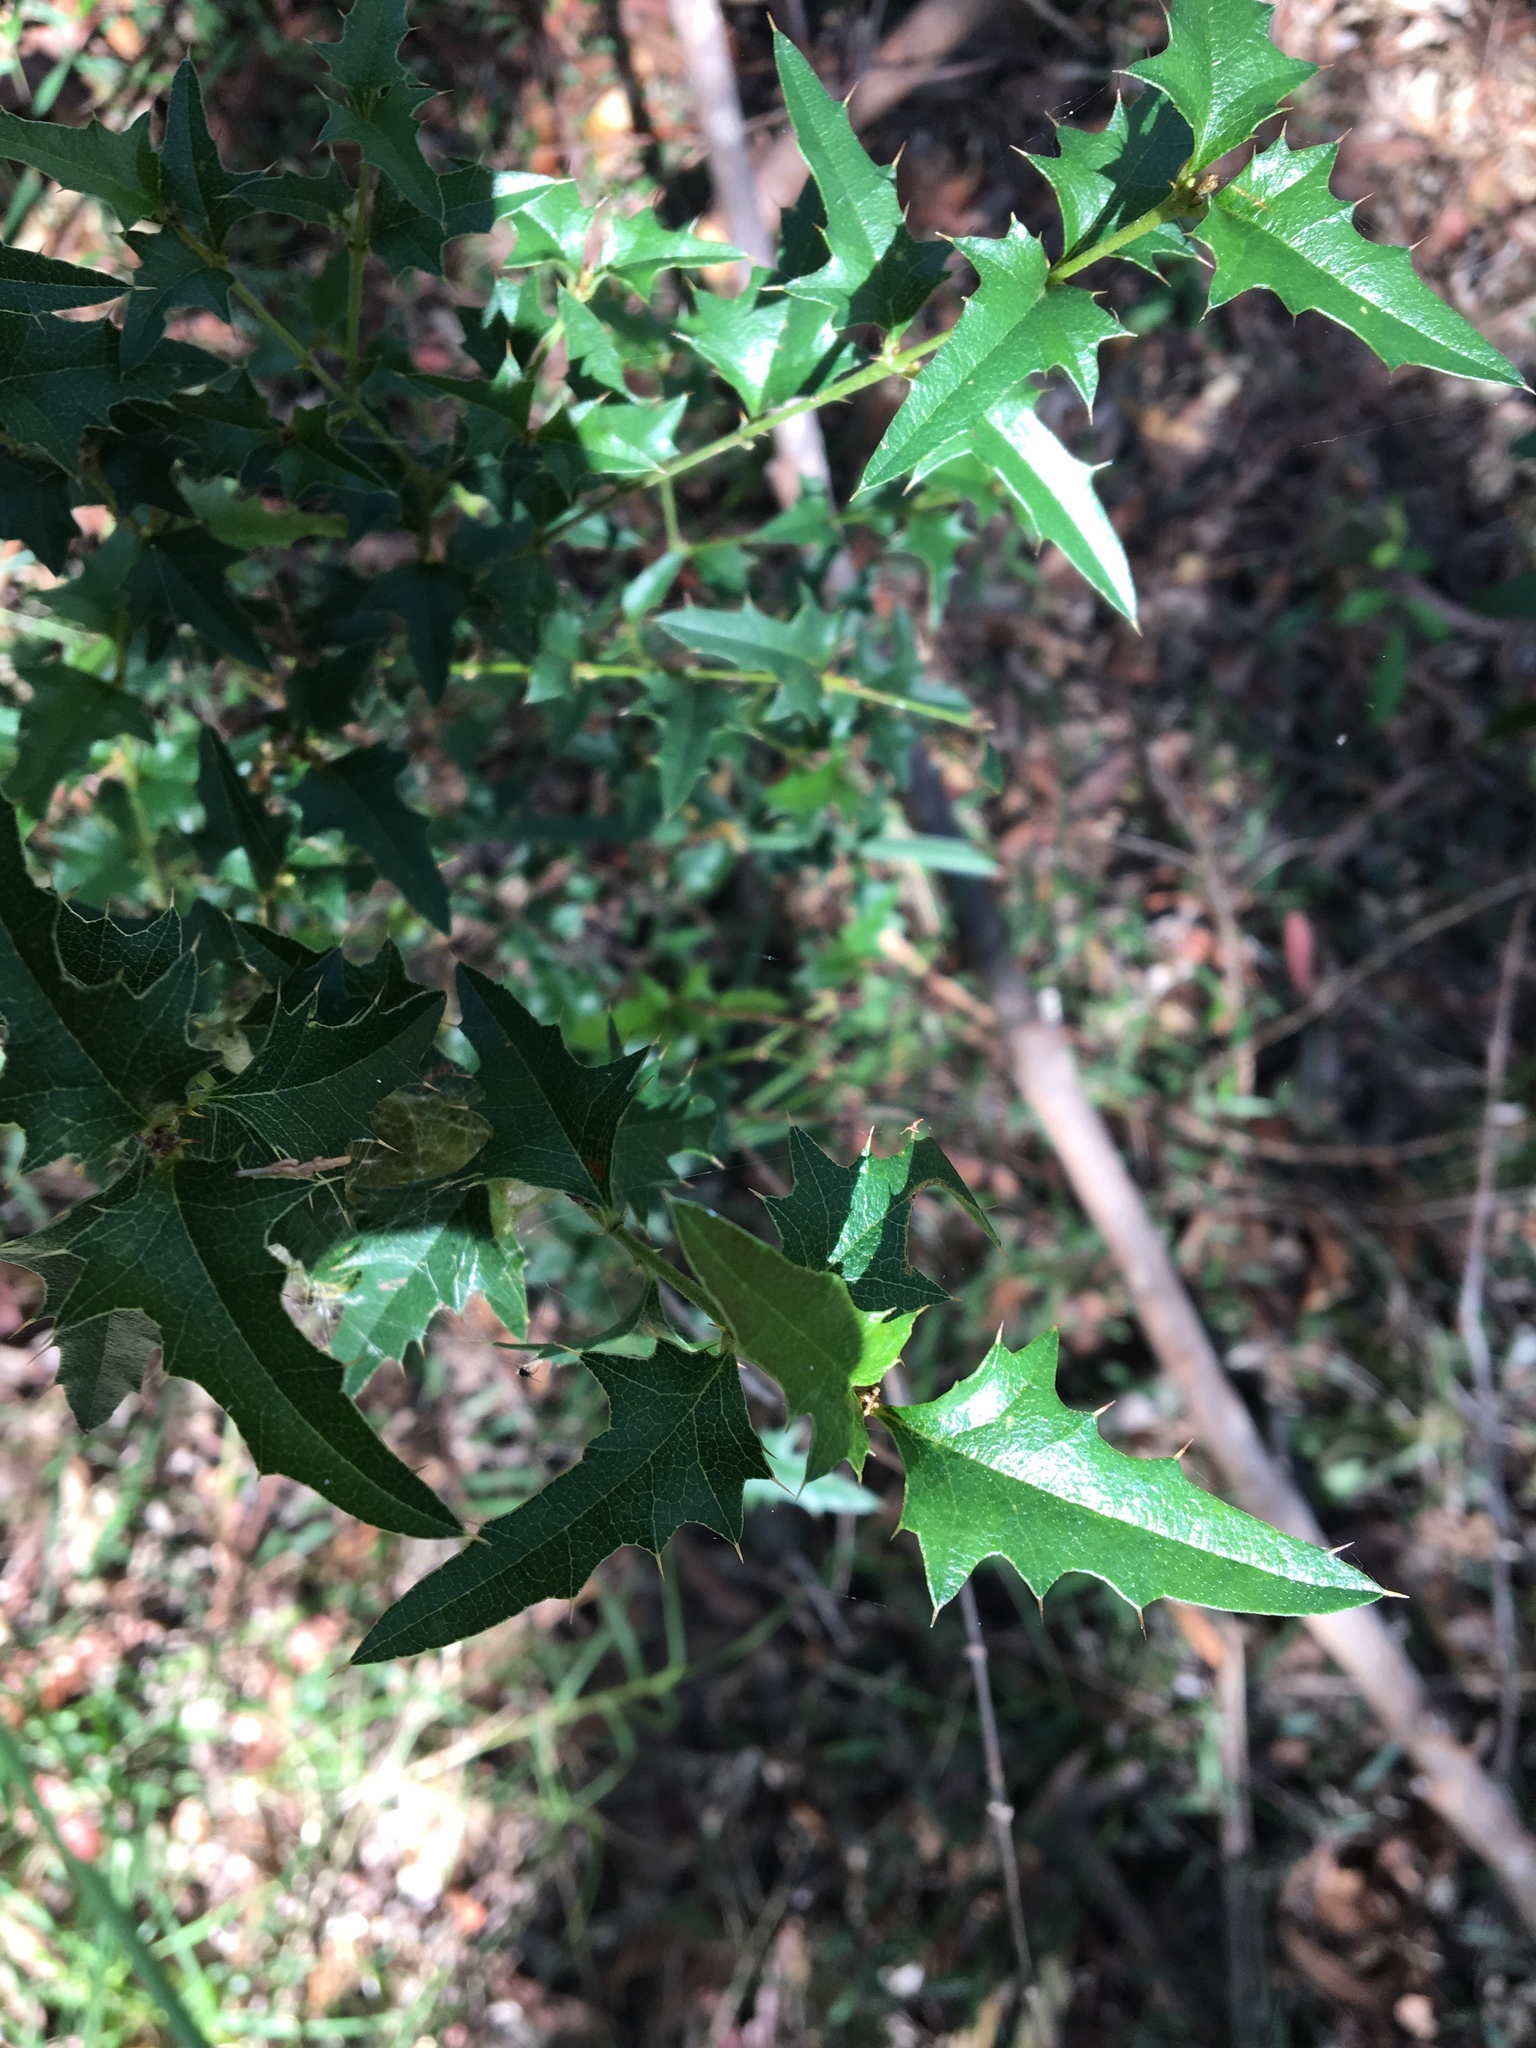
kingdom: Plantae
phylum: Tracheophyta
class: Magnoliopsida
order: Fabales
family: Fabaceae
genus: Podolobium
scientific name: Podolobium ilicifolium
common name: Native holly
